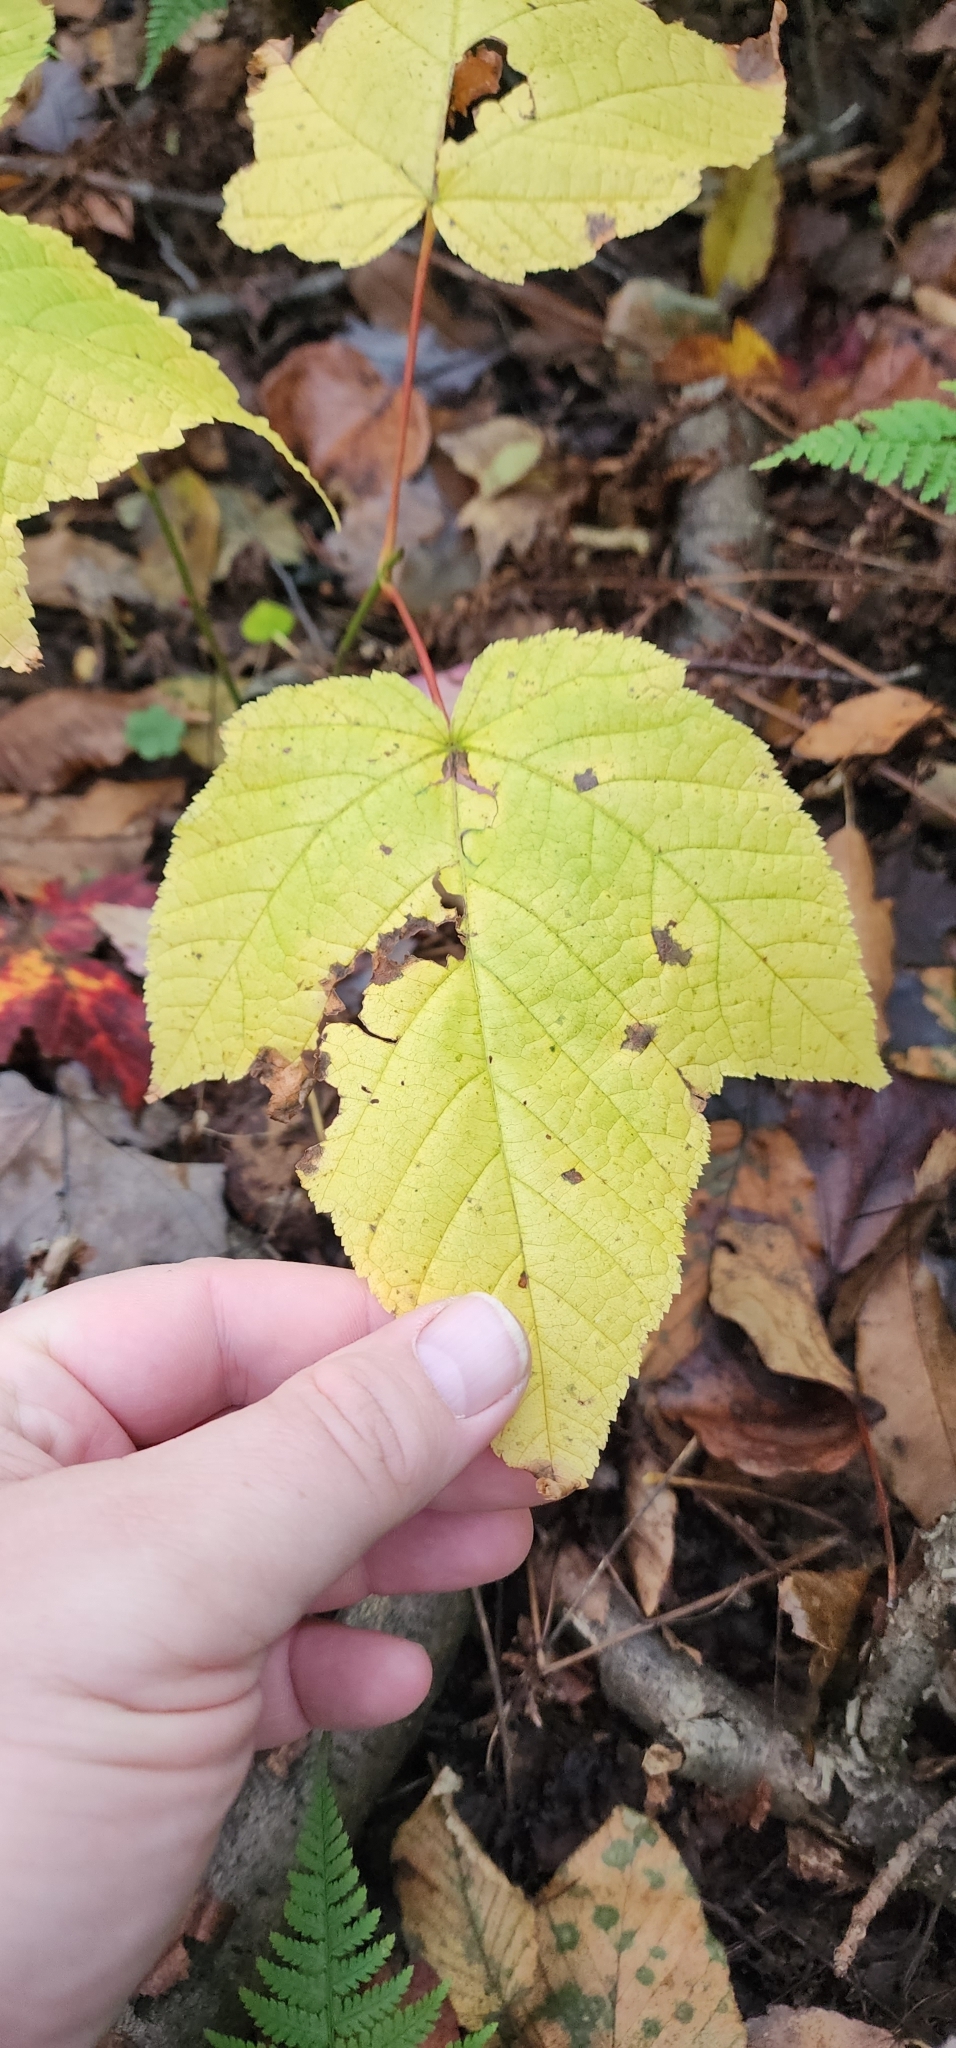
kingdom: Plantae
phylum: Tracheophyta
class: Magnoliopsida
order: Sapindales
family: Sapindaceae
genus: Acer
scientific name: Acer pensylvanicum
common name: Moosewood
